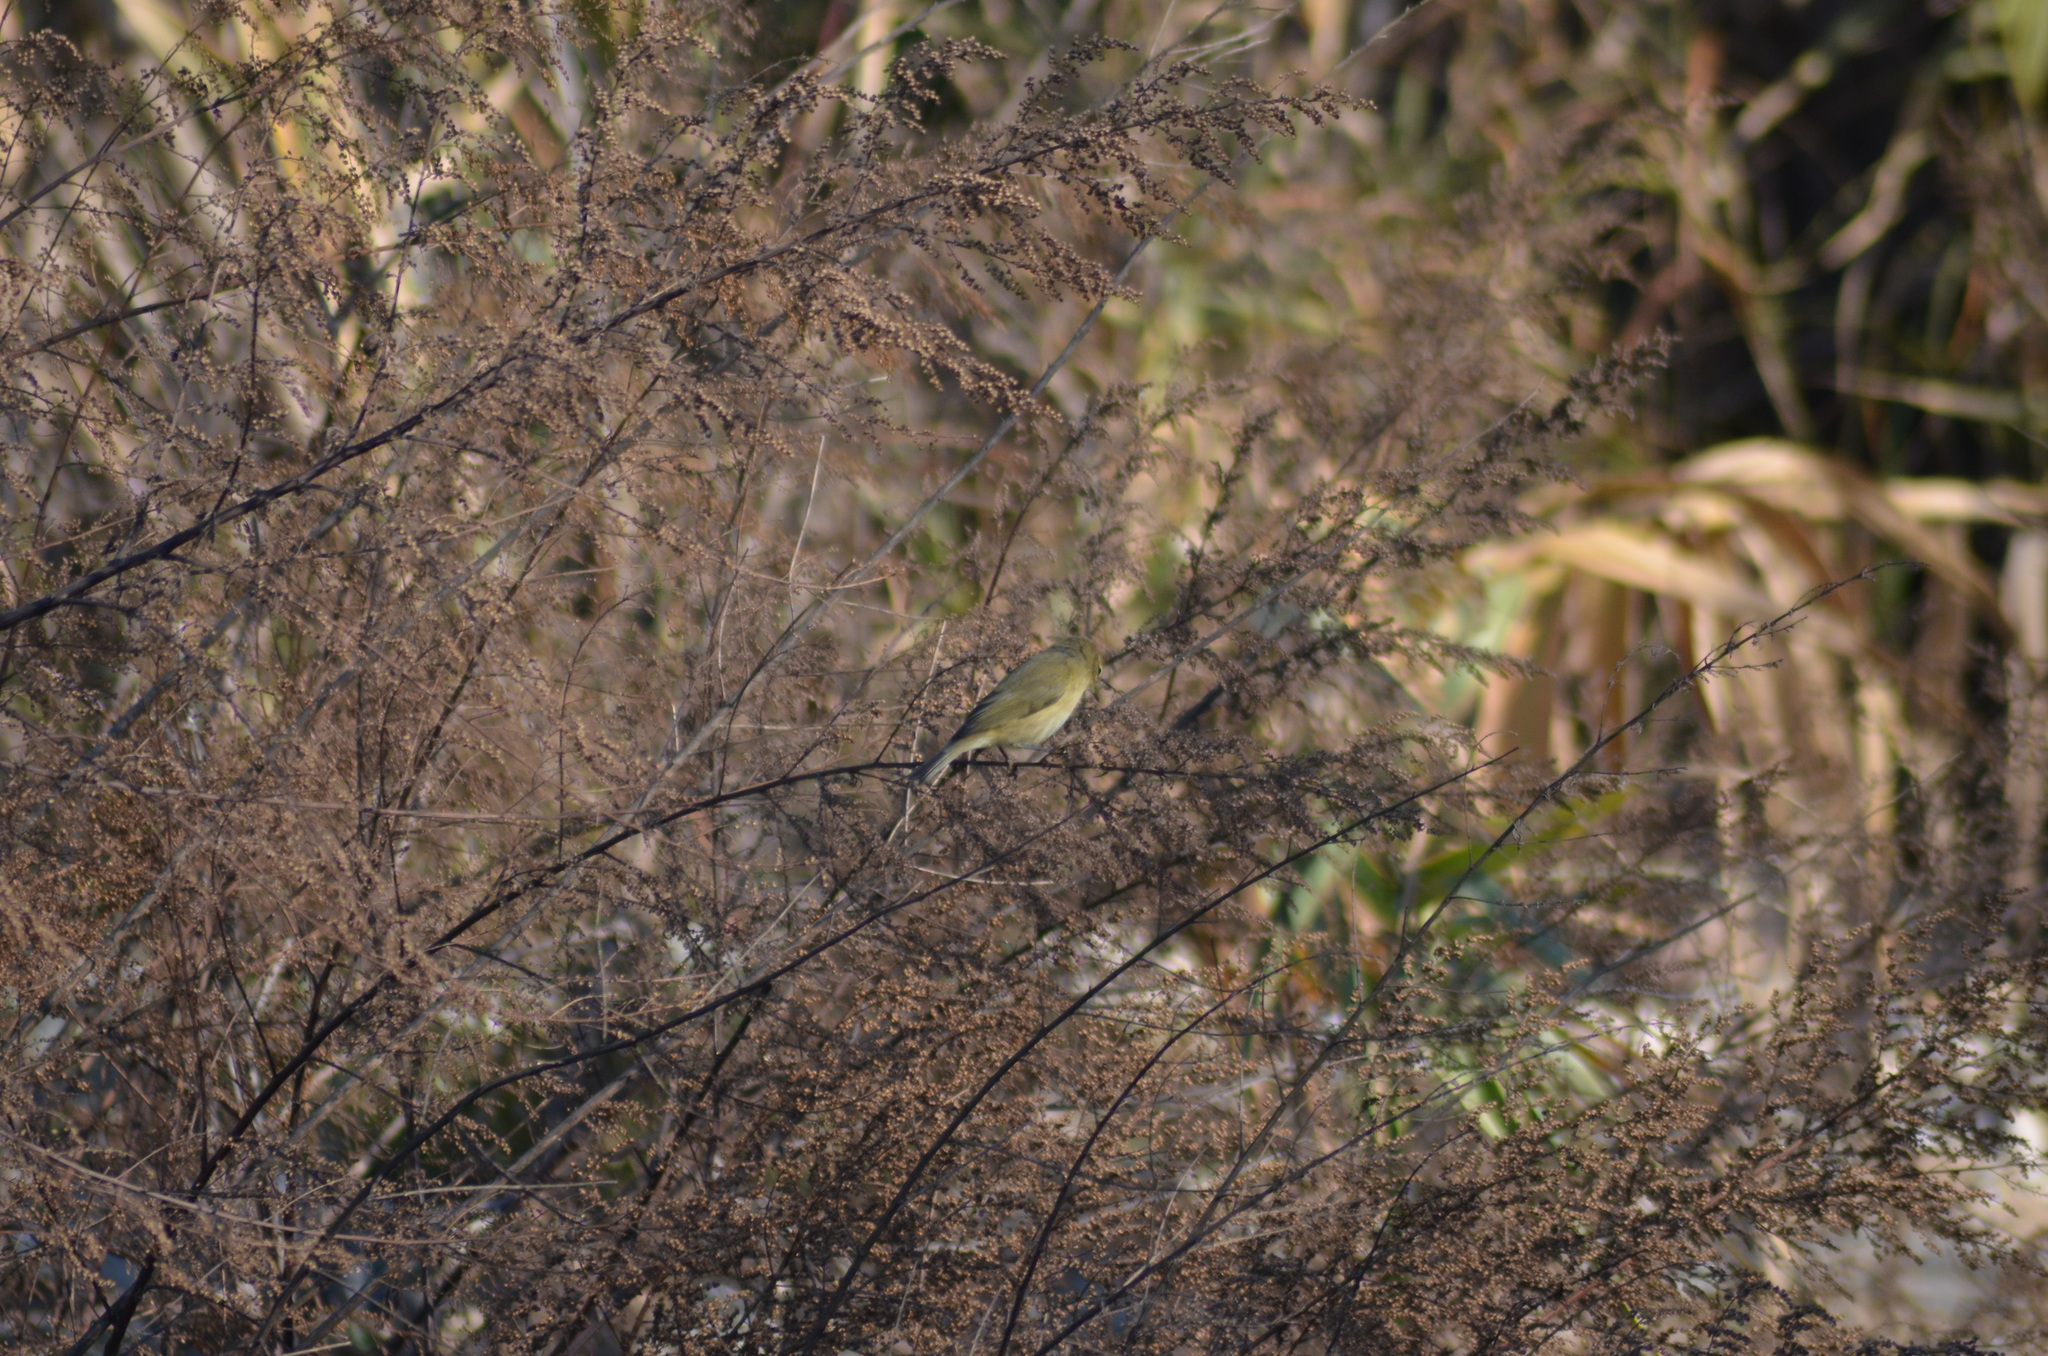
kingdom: Animalia
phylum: Chordata
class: Aves
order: Passeriformes
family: Phylloscopidae
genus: Phylloscopus
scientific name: Phylloscopus collybita
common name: Common chiffchaff
